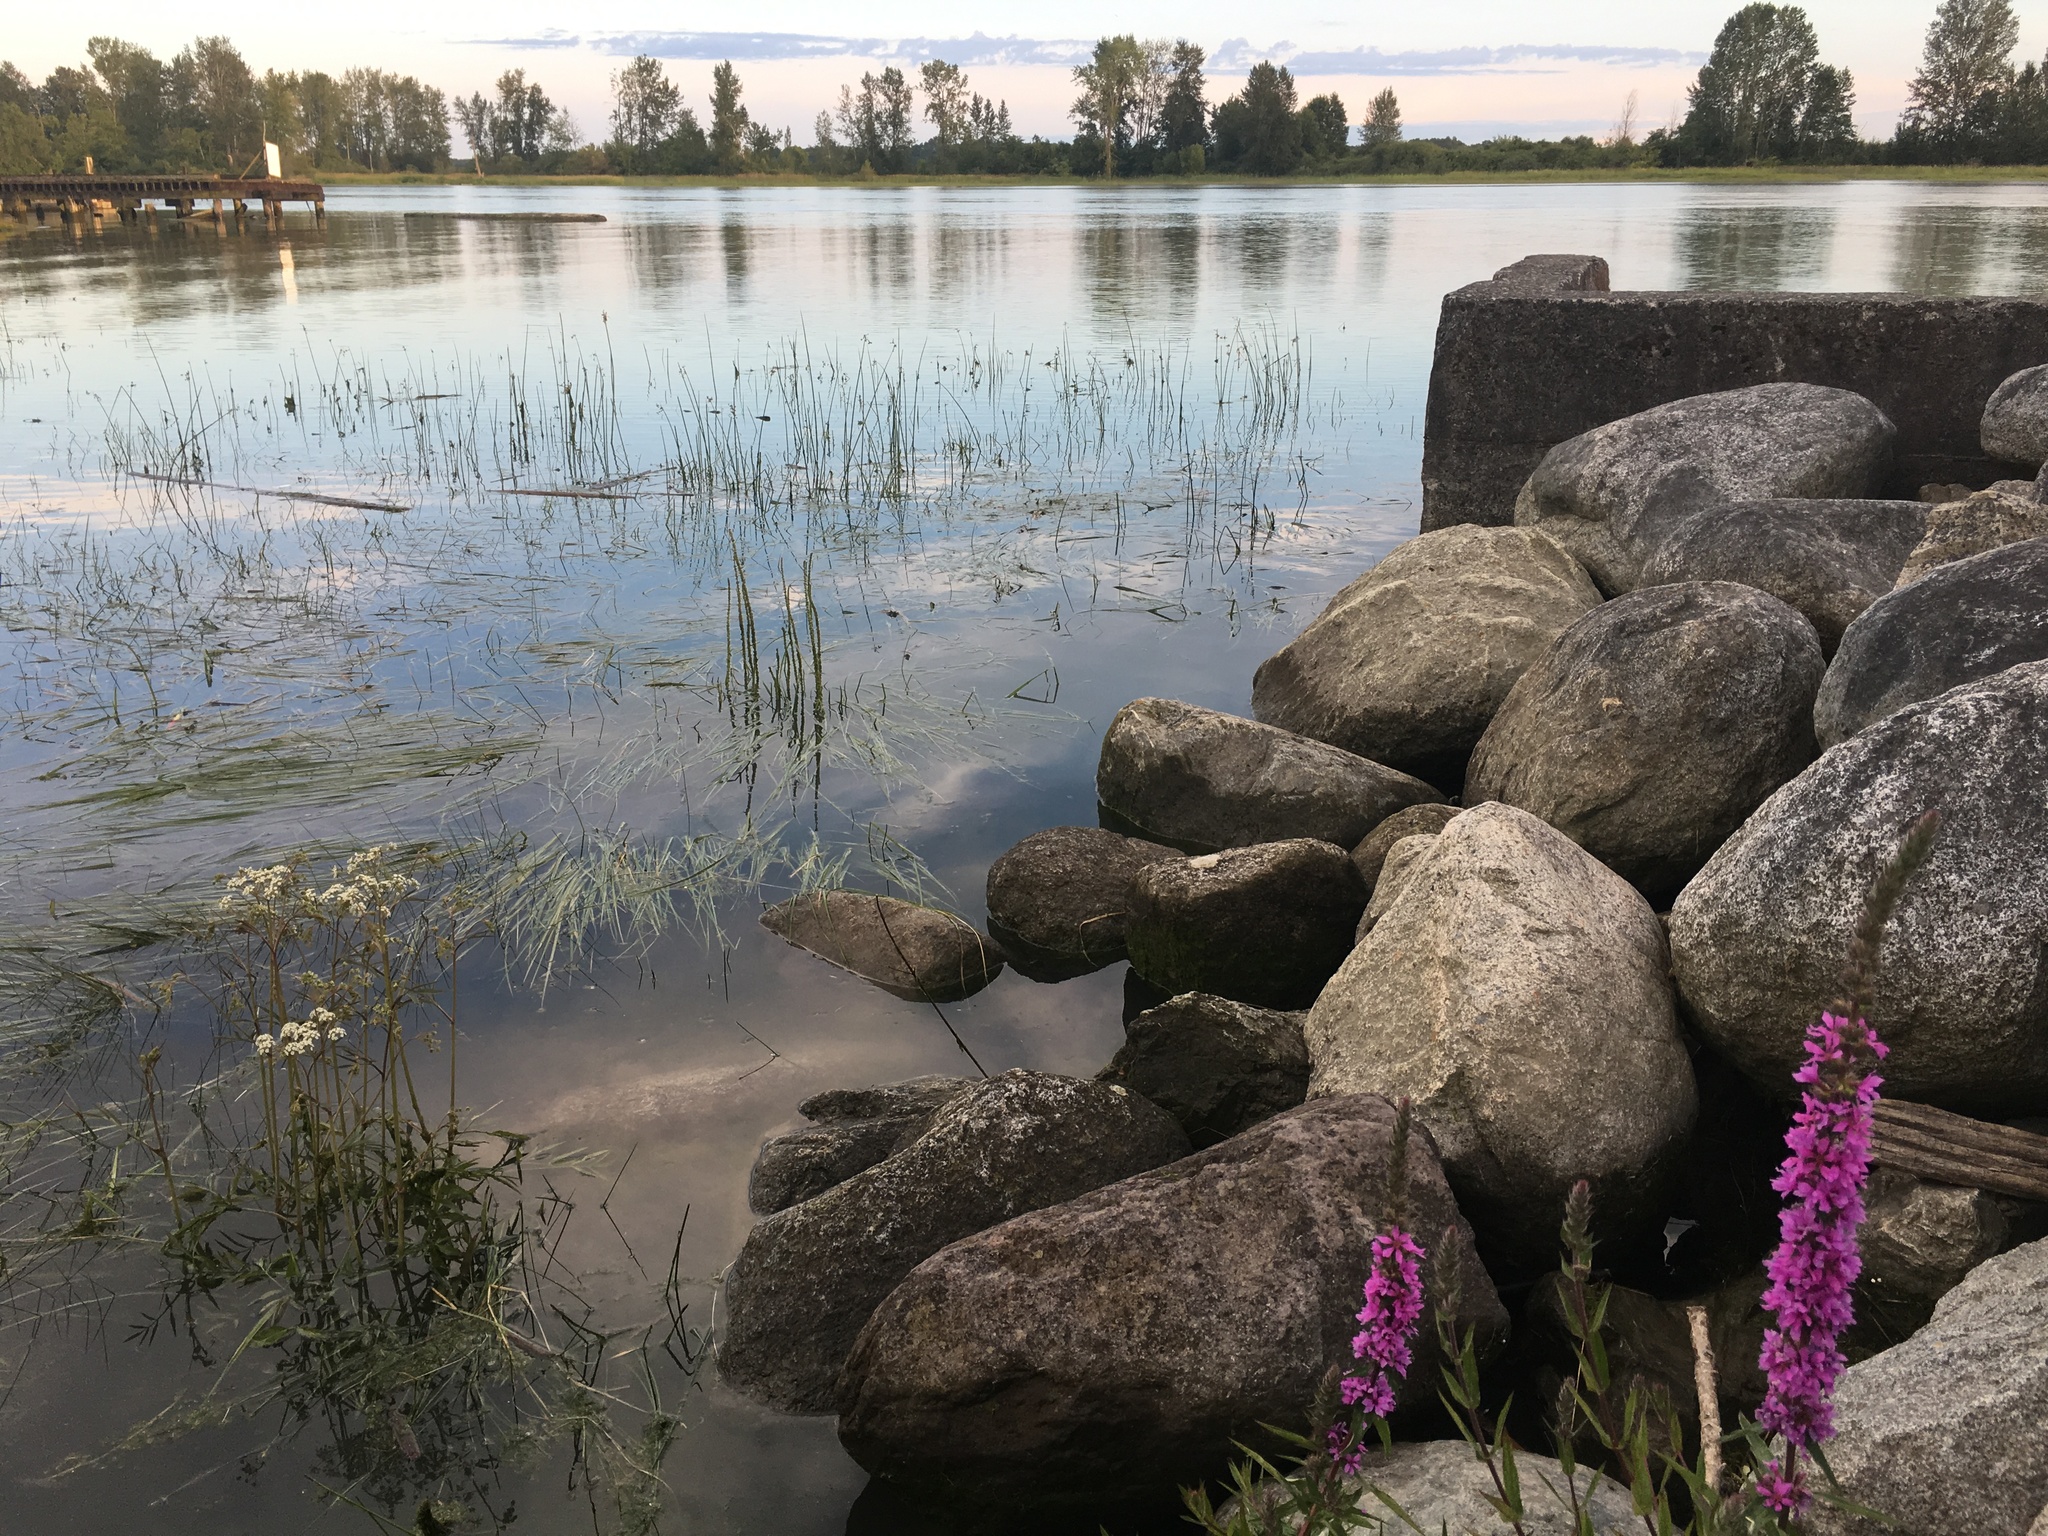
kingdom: Plantae
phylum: Tracheophyta
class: Magnoliopsida
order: Myrtales
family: Lythraceae
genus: Lythrum
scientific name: Lythrum salicaria
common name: Purple loosestrife
